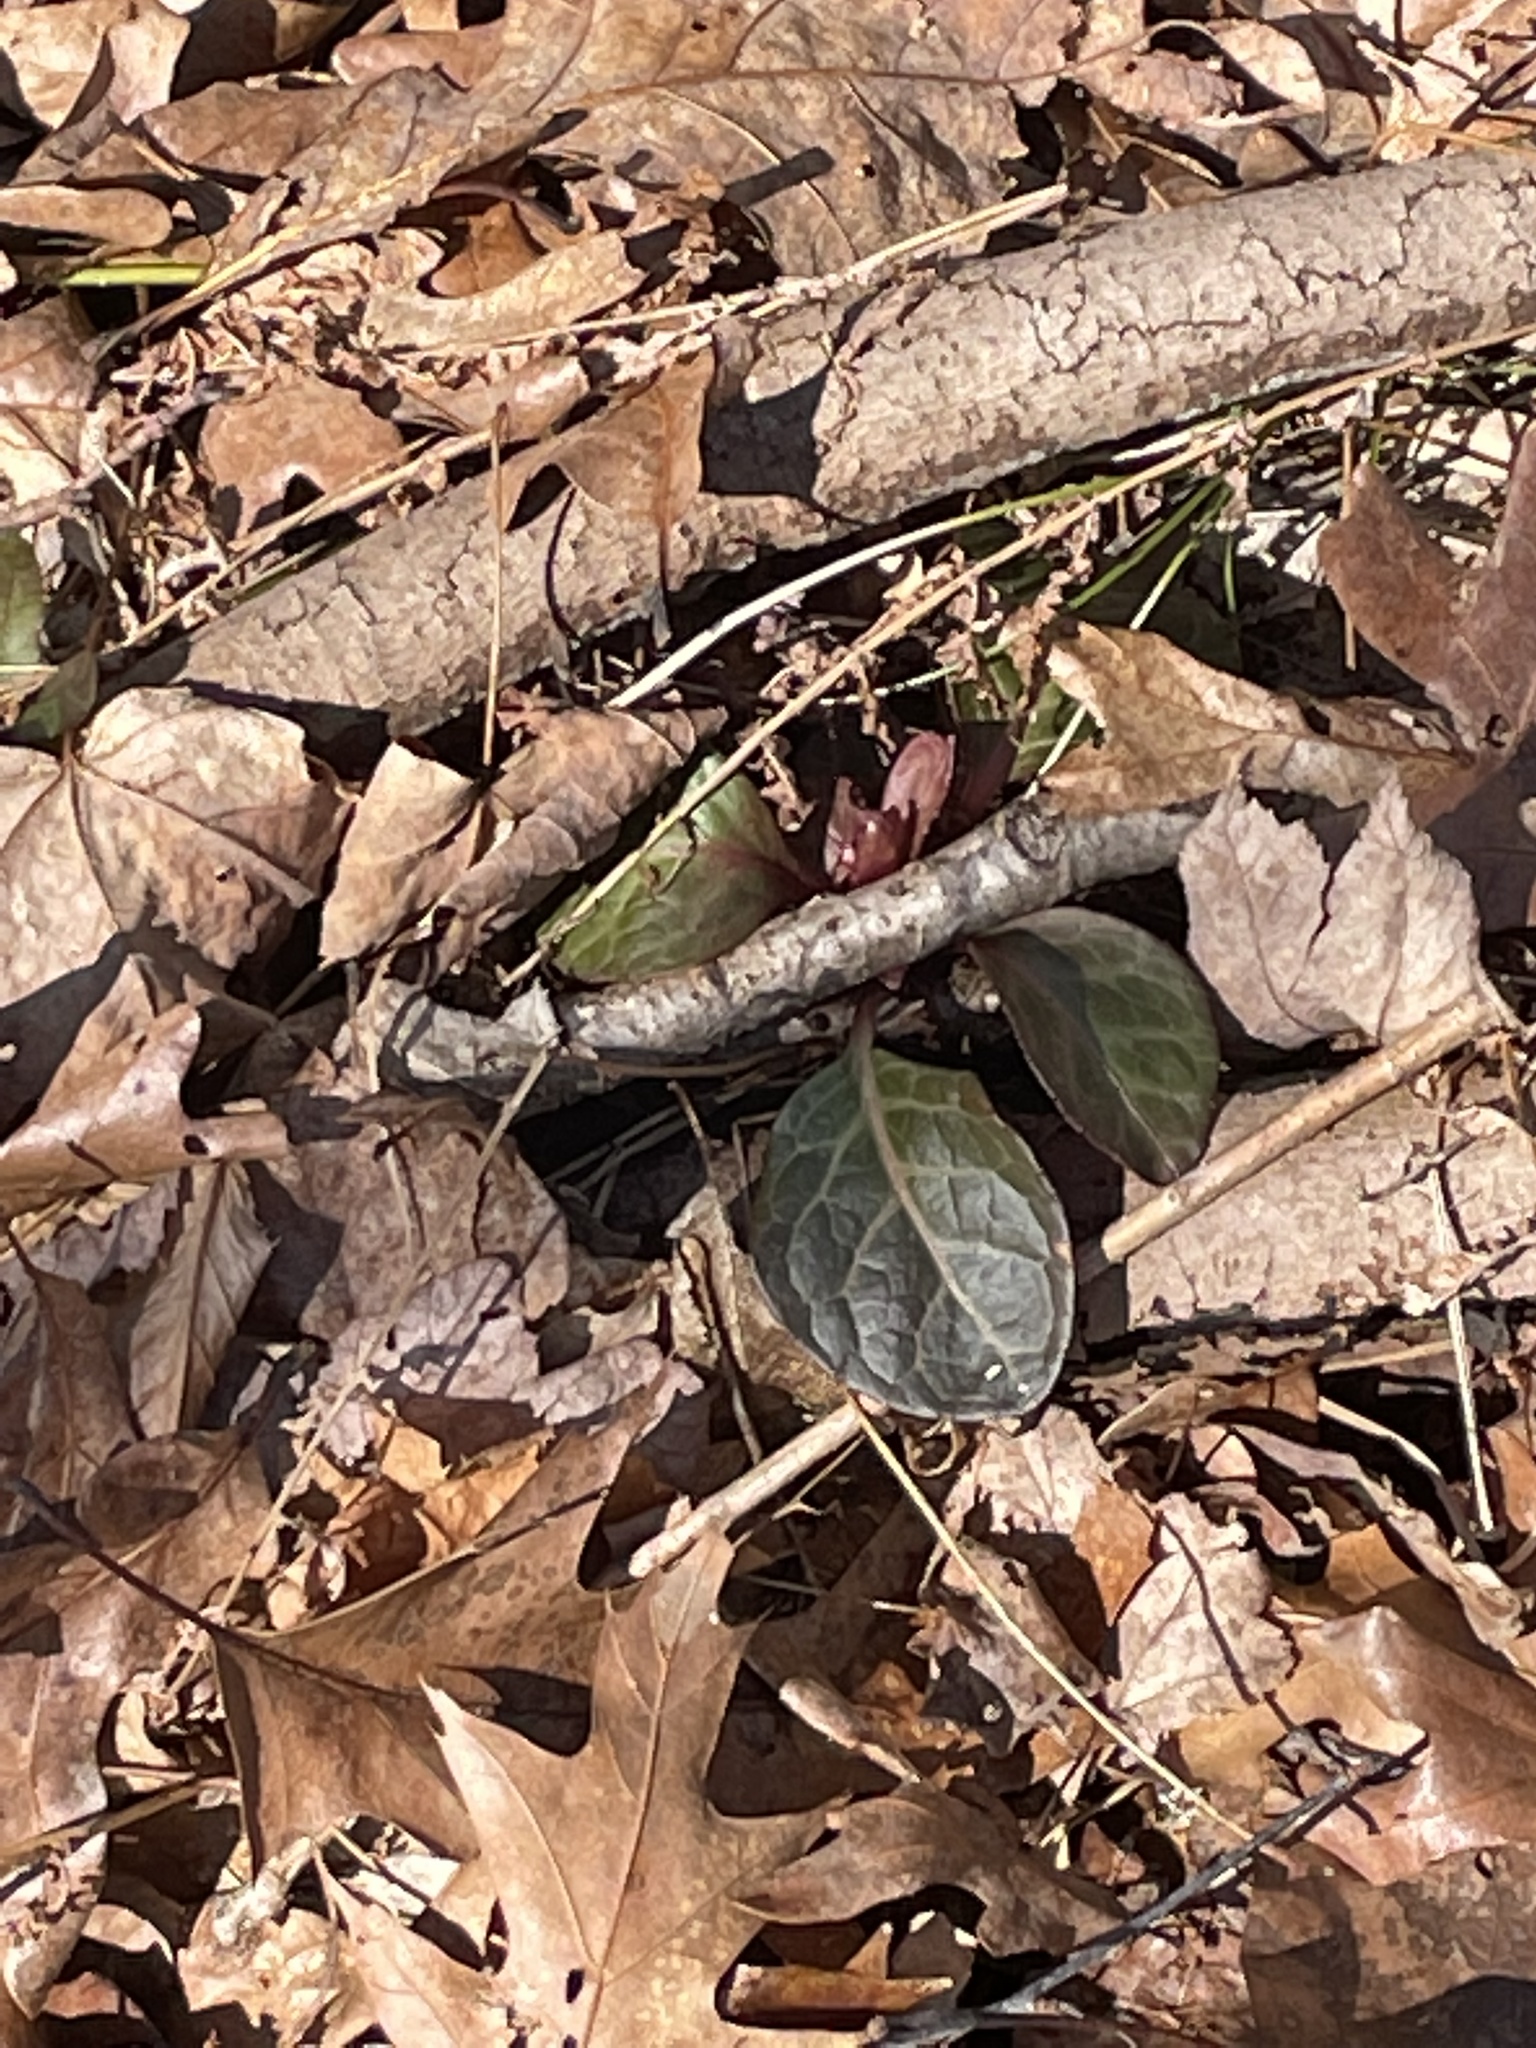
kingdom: Plantae
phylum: Tracheophyta
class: Magnoliopsida
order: Ericales
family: Ericaceae
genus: Pyrola
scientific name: Pyrola americana
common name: American wintergreen
